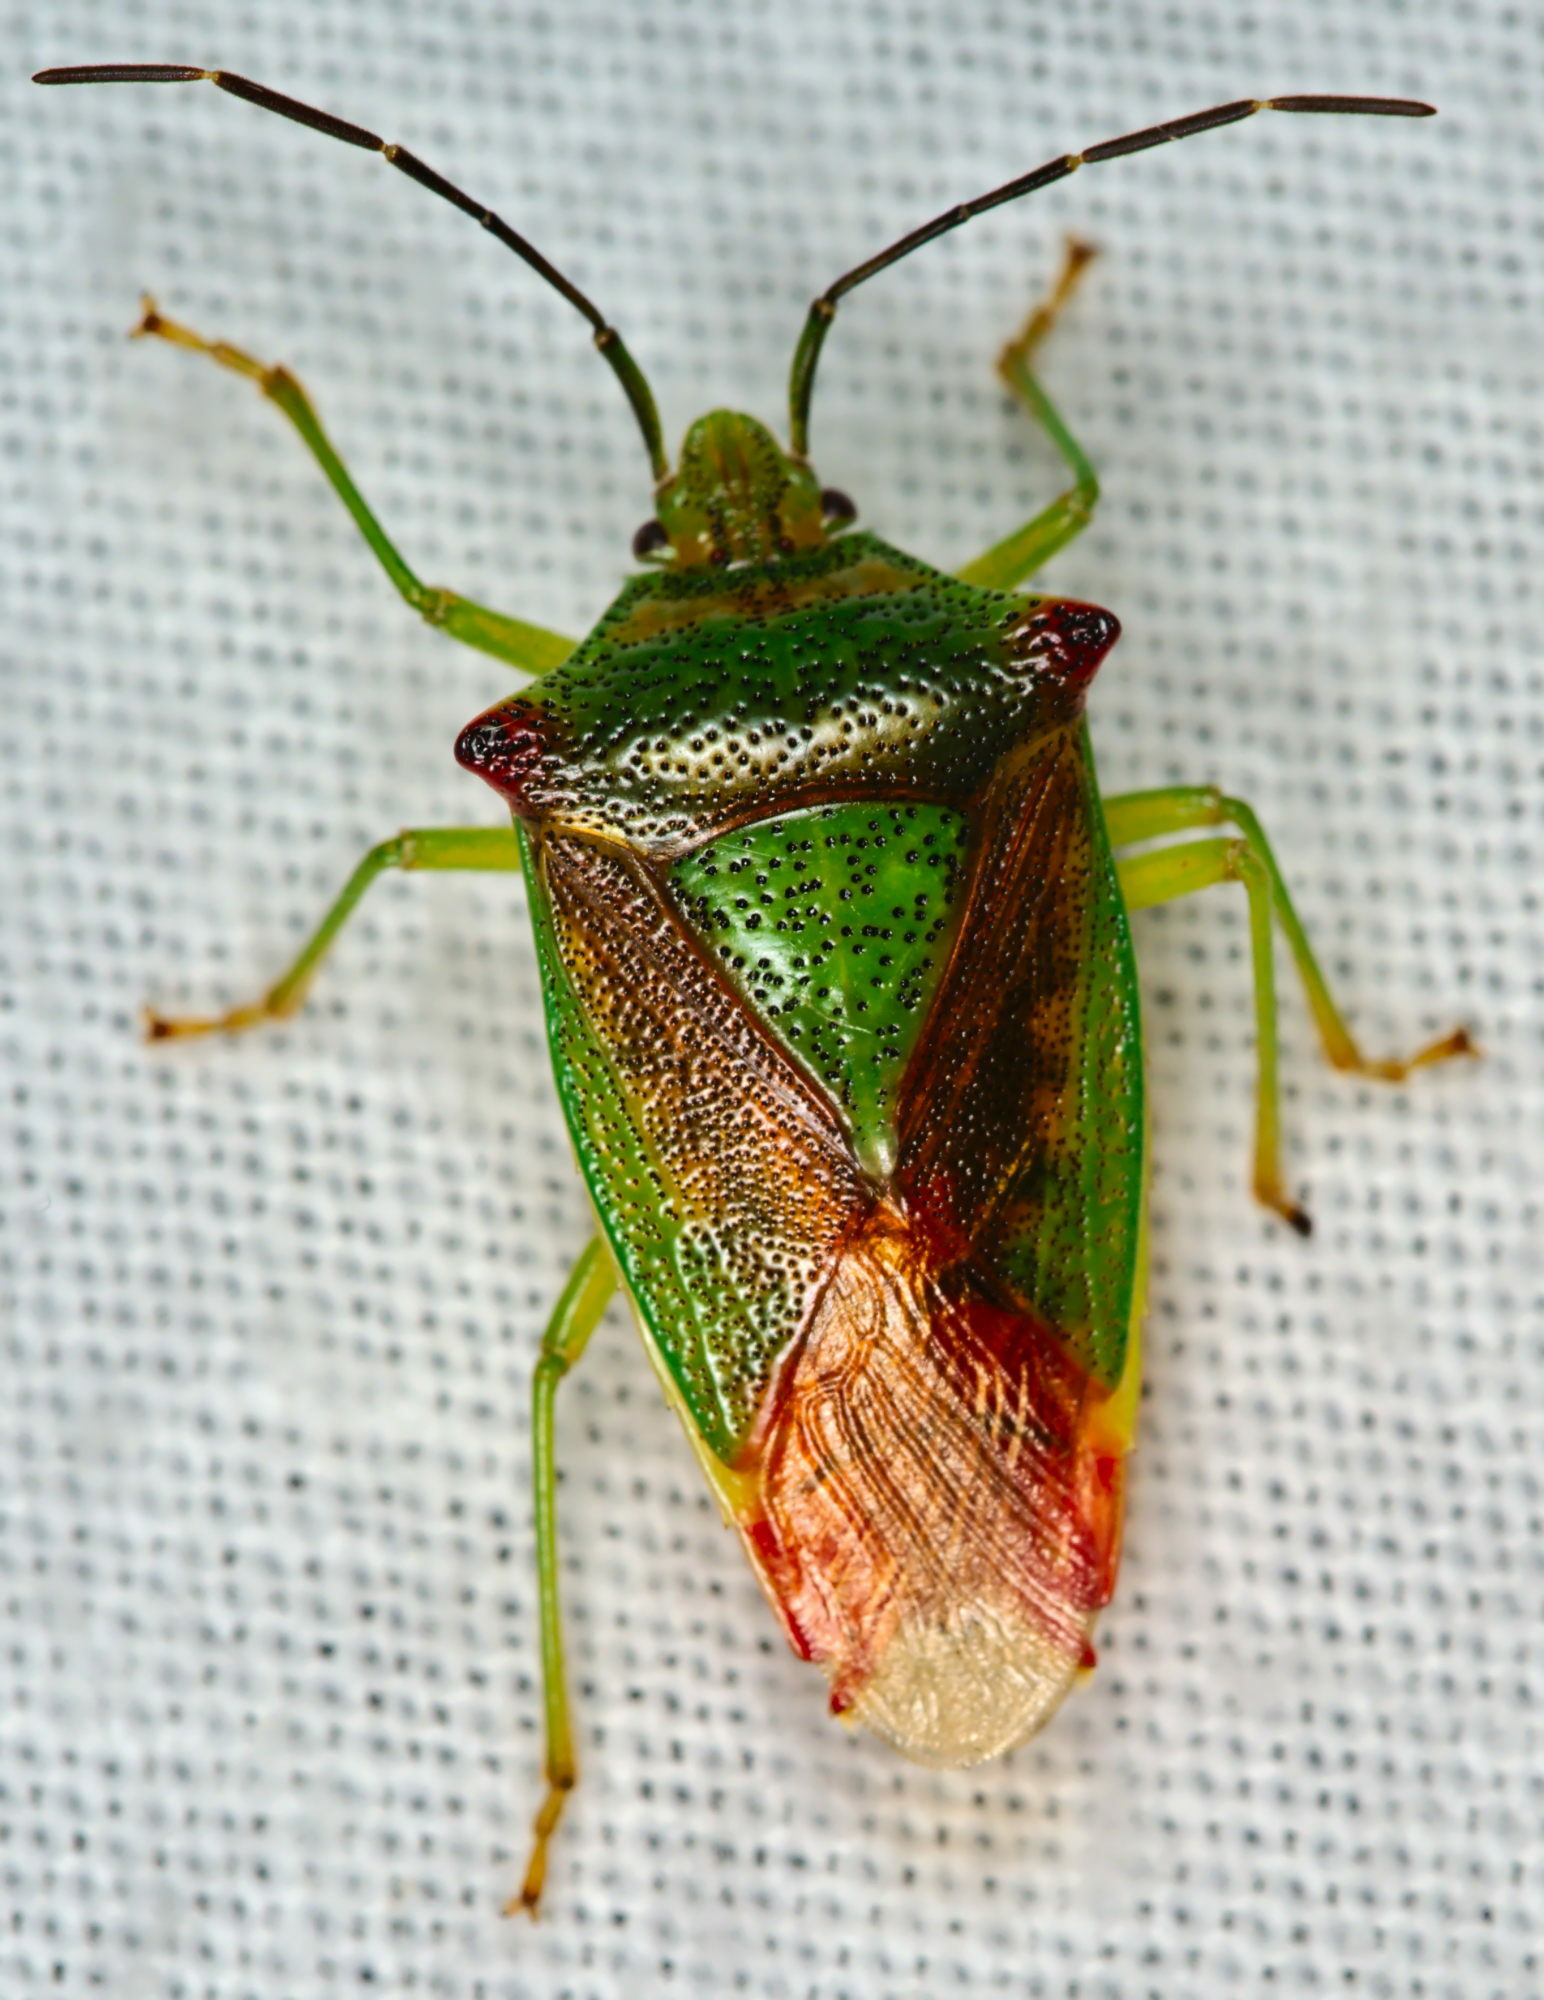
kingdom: Animalia
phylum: Arthropoda
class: Insecta
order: Hemiptera
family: Acanthosomatidae
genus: Acanthosoma
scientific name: Acanthosoma haemorrhoidale
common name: Hawthorn shieldbug
